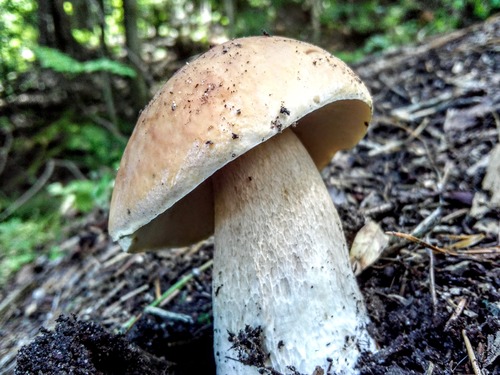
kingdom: Fungi
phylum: Basidiomycota
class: Agaricomycetes
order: Boletales
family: Boletaceae
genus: Boletus
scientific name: Boletus edulis
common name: Cep
